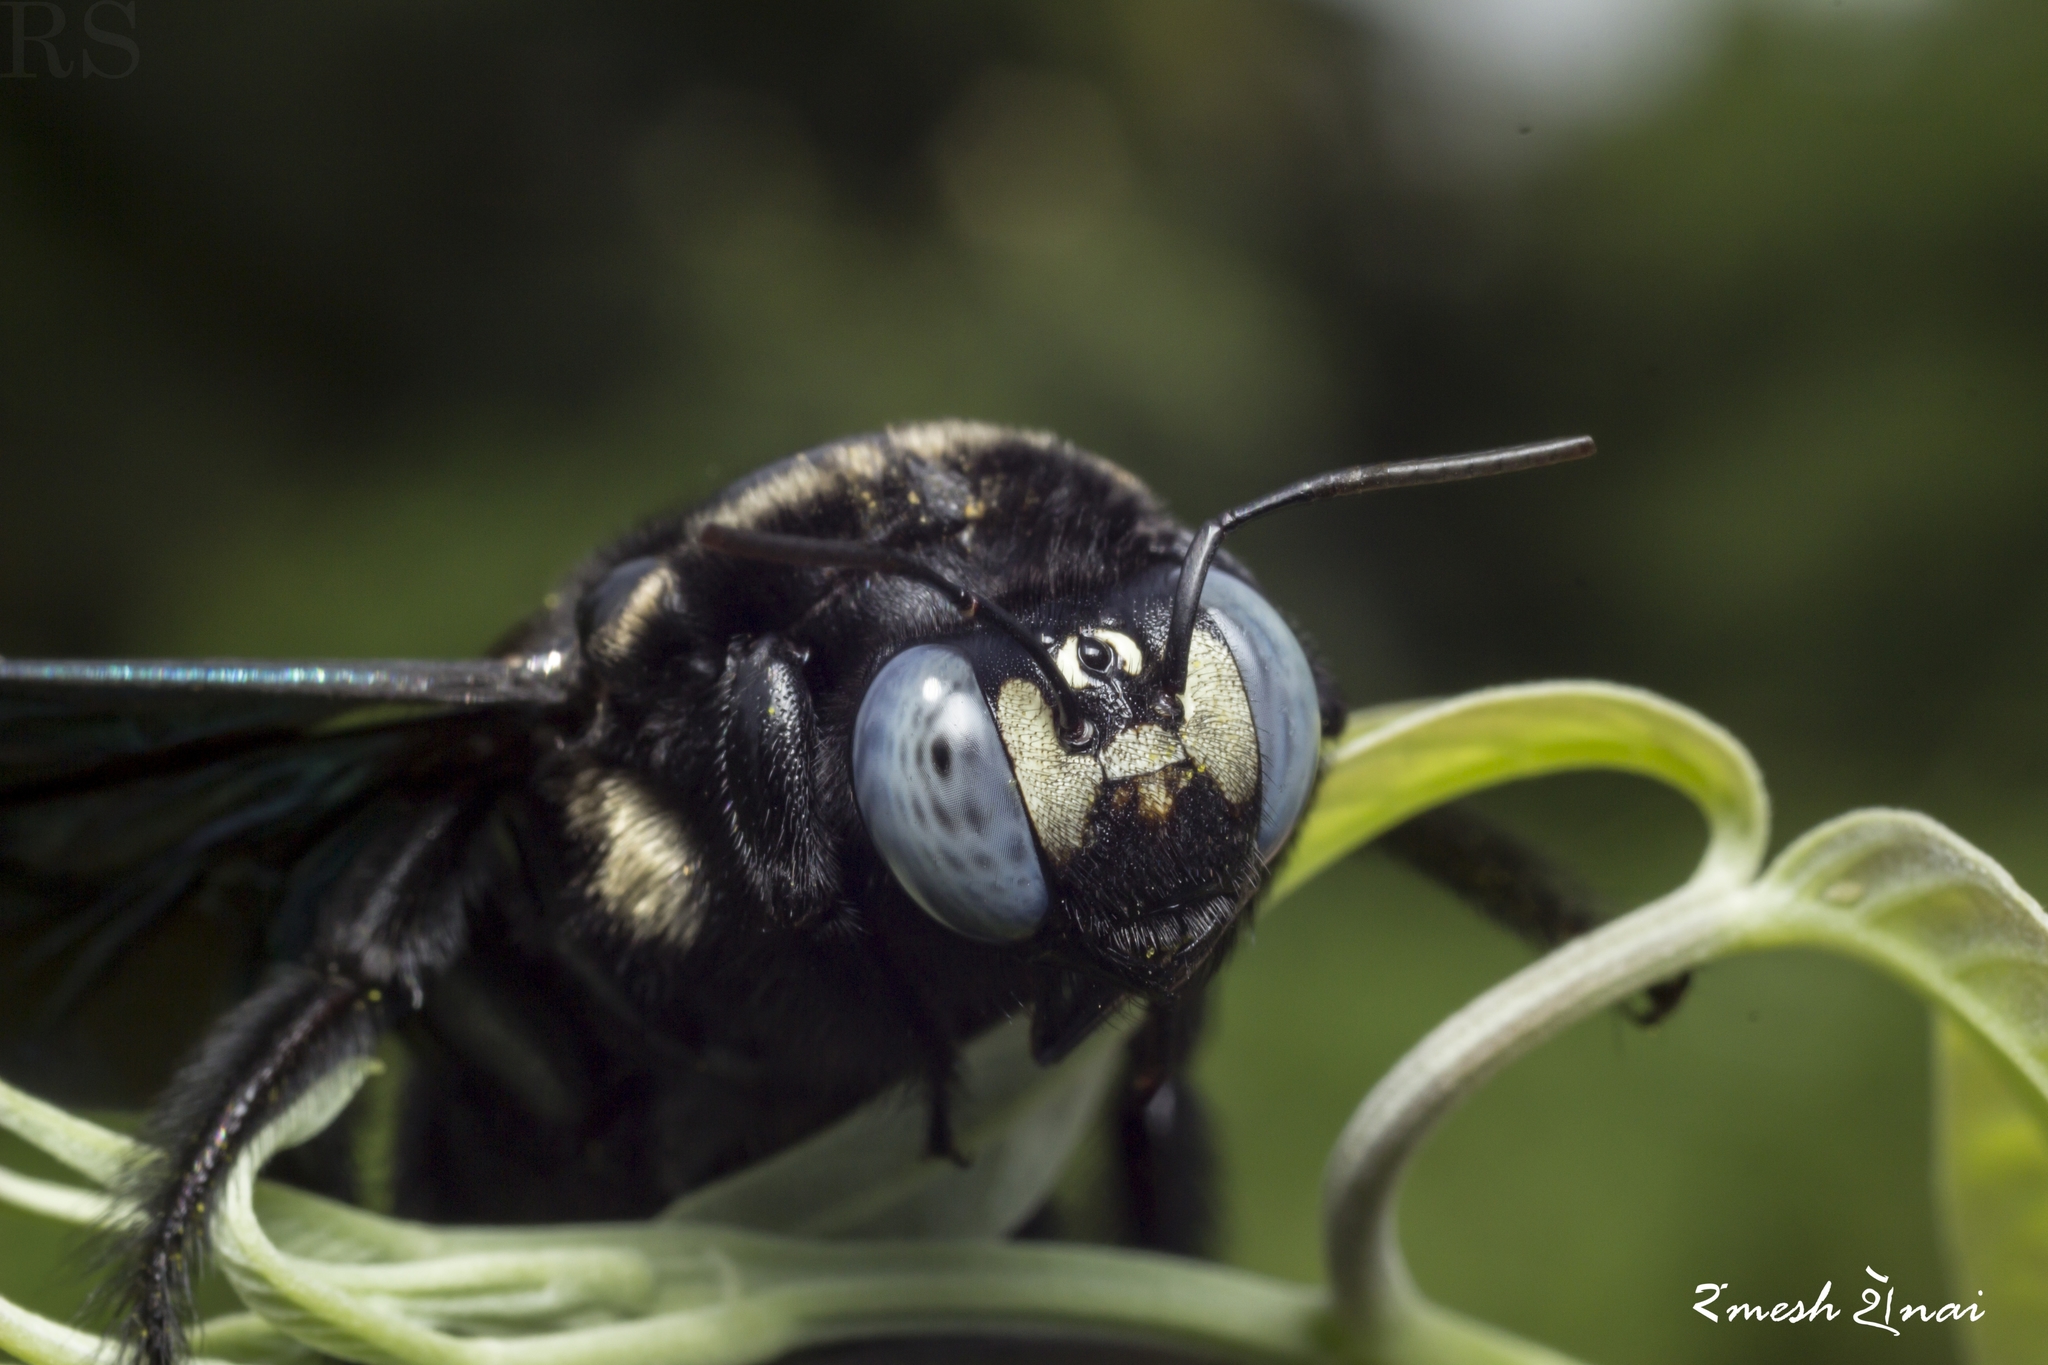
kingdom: Animalia
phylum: Arthropoda
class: Insecta
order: Hymenoptera
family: Apidae
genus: Xylocopa
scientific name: Xylocopa auripennis
